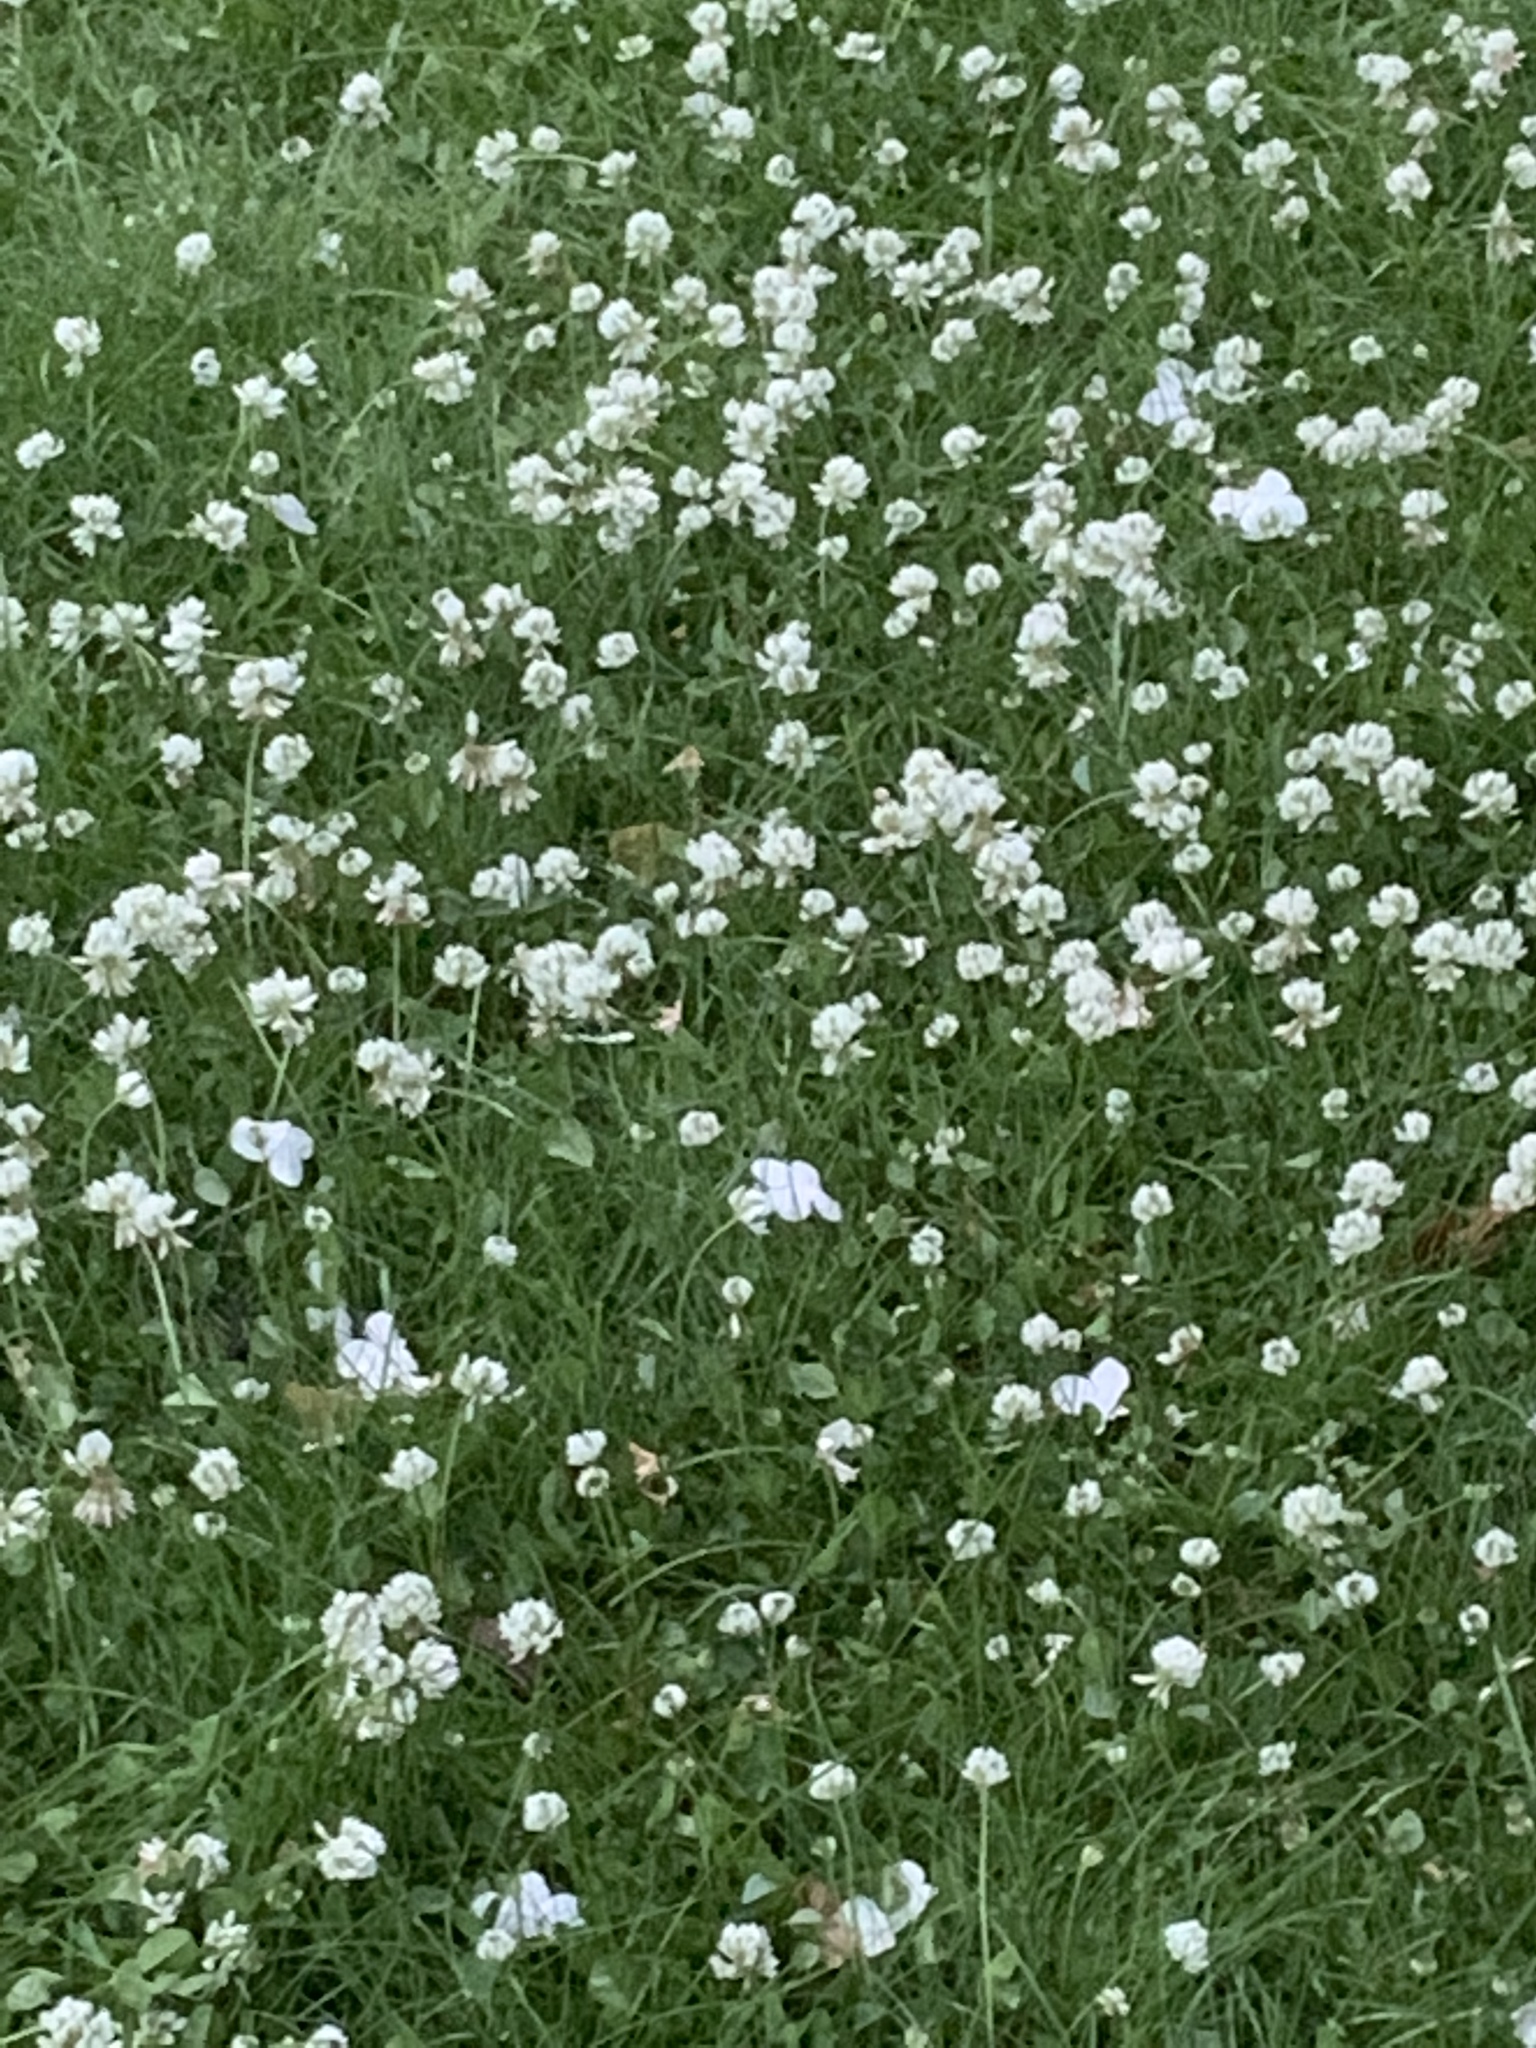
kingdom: Plantae
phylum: Tracheophyta
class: Magnoliopsida
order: Fabales
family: Fabaceae
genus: Trifolium
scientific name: Trifolium repens
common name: White clover
